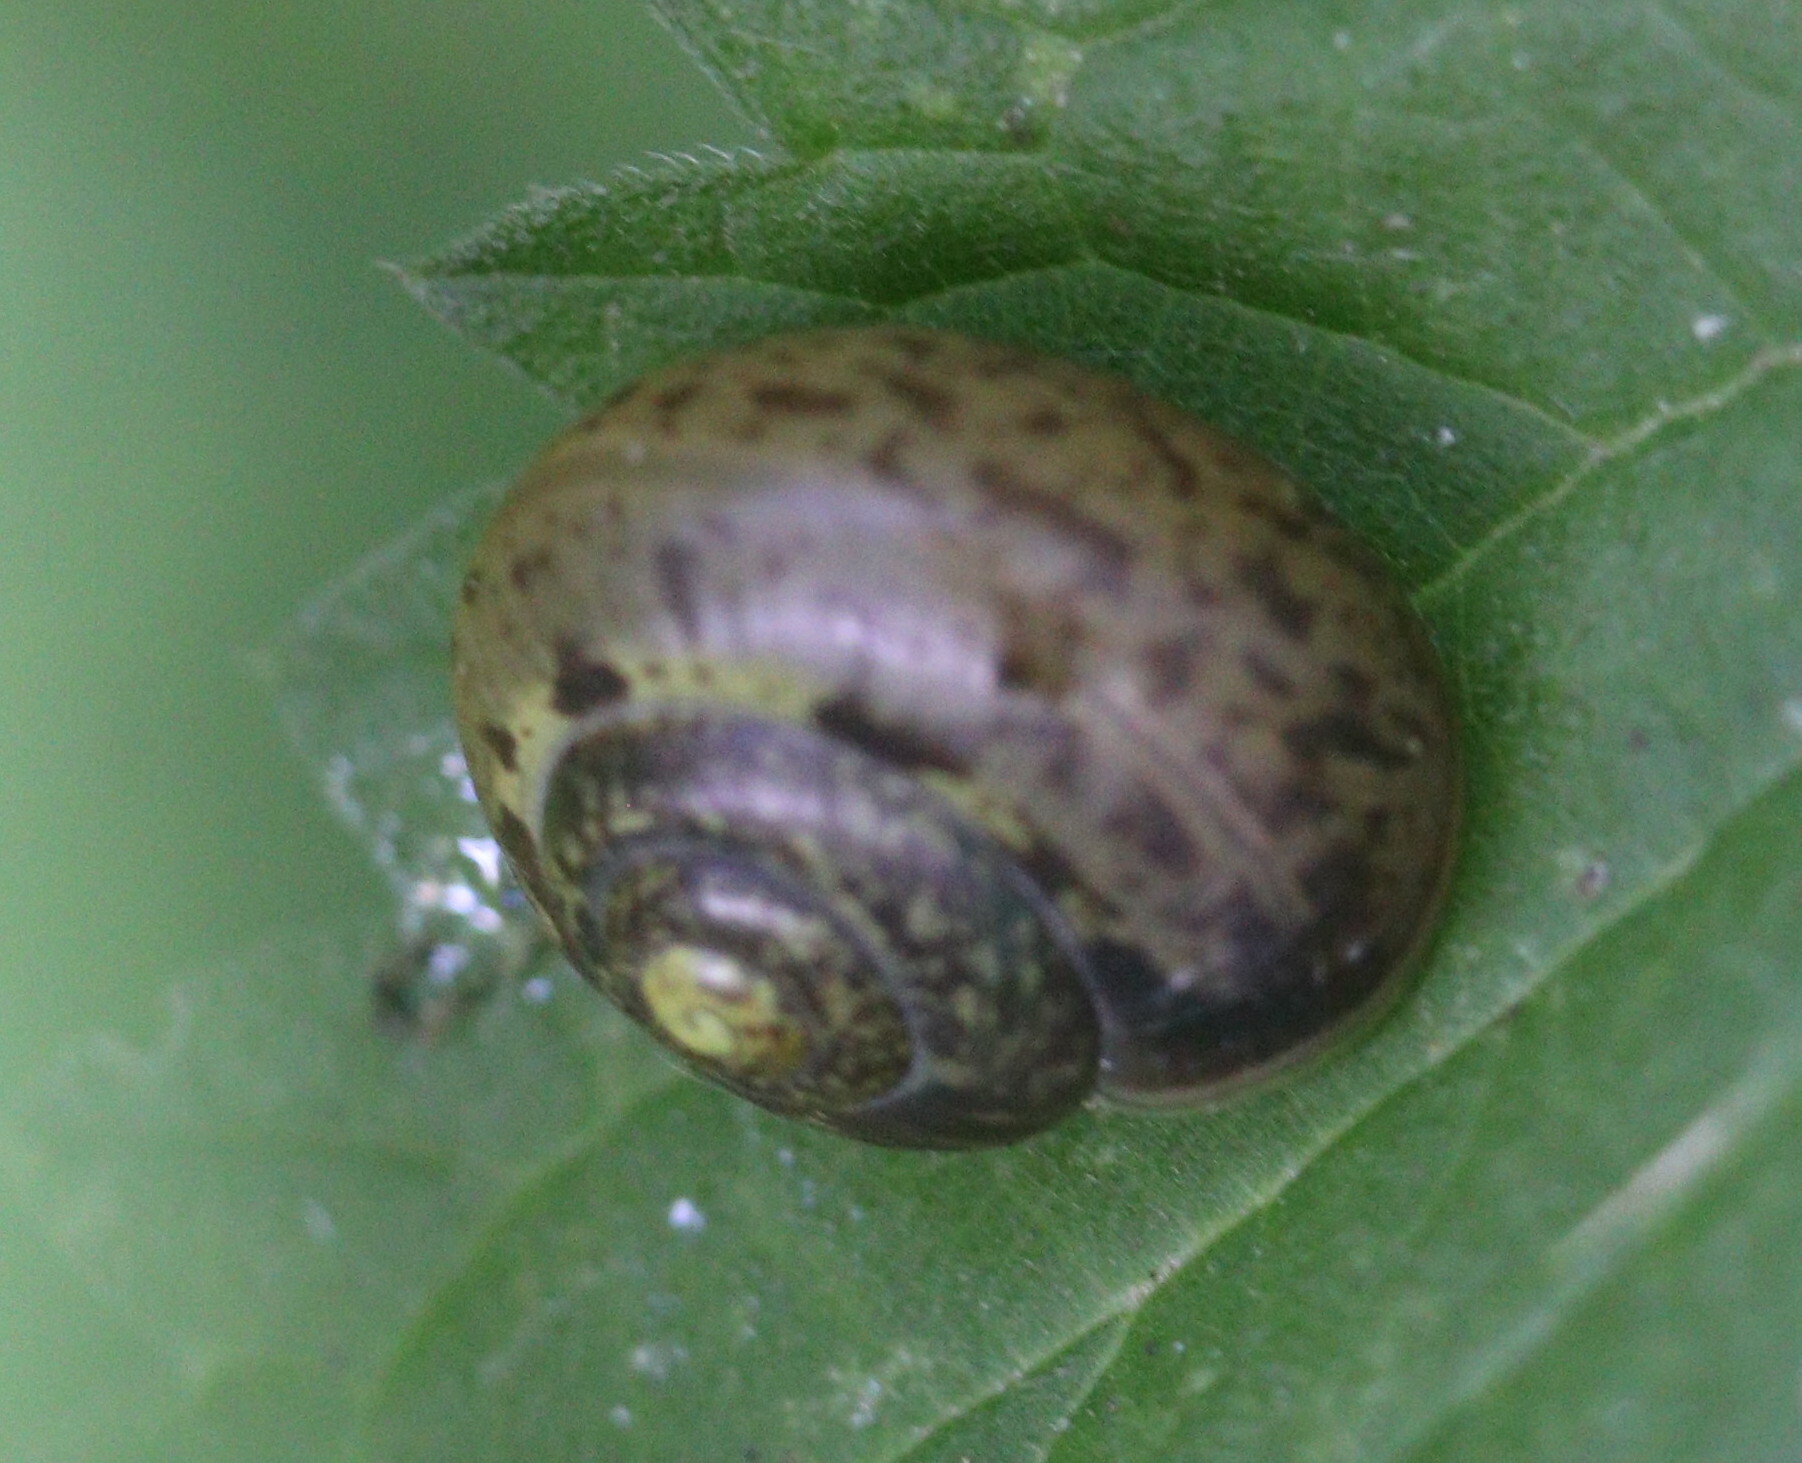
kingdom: Animalia
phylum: Mollusca
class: Gastropoda
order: Stylommatophora
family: Camaenidae
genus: Fruticicola
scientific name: Fruticicola fruticum
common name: Bush snail
